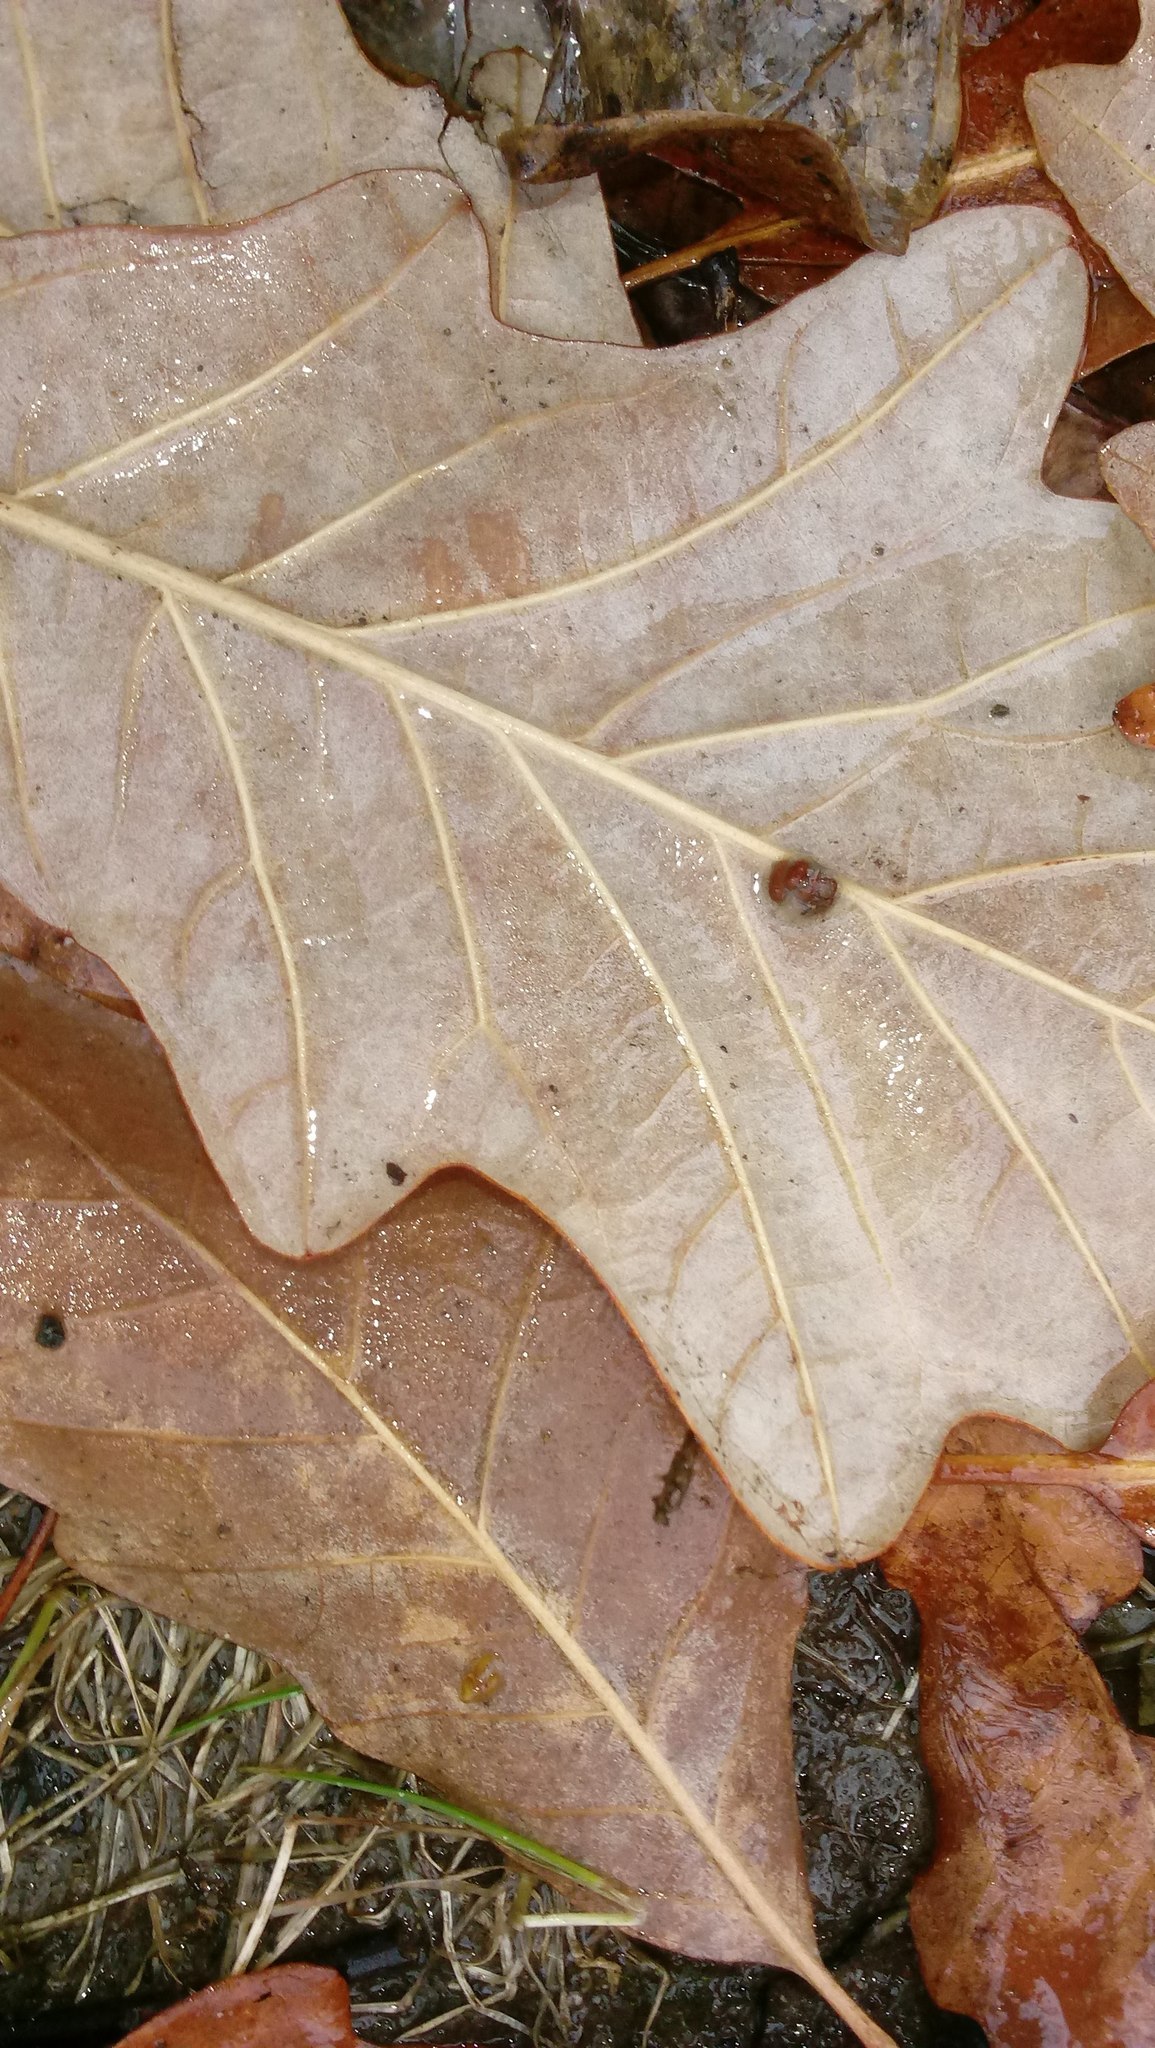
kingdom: Animalia
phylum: Arthropoda
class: Insecta
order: Hymenoptera
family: Cynipidae
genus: Andricus
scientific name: Andricus Druon ignotum
